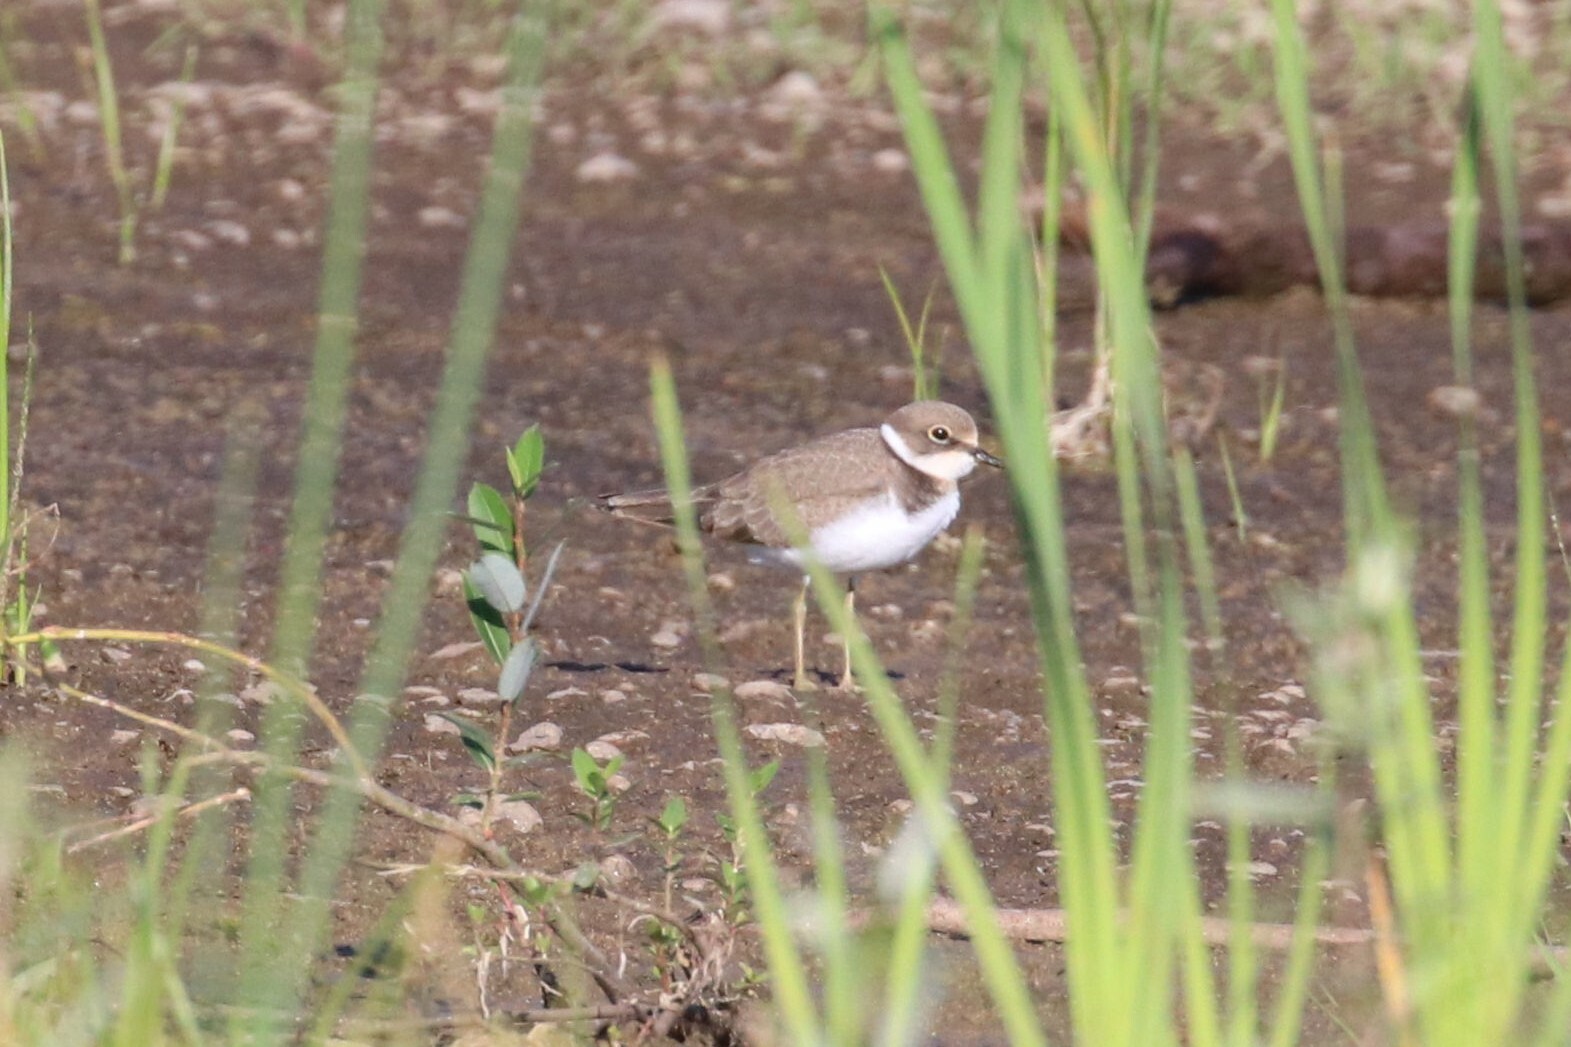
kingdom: Animalia
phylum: Chordata
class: Aves
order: Charadriiformes
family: Charadriidae
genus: Charadrius
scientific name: Charadrius dubius
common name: Little ringed plover
